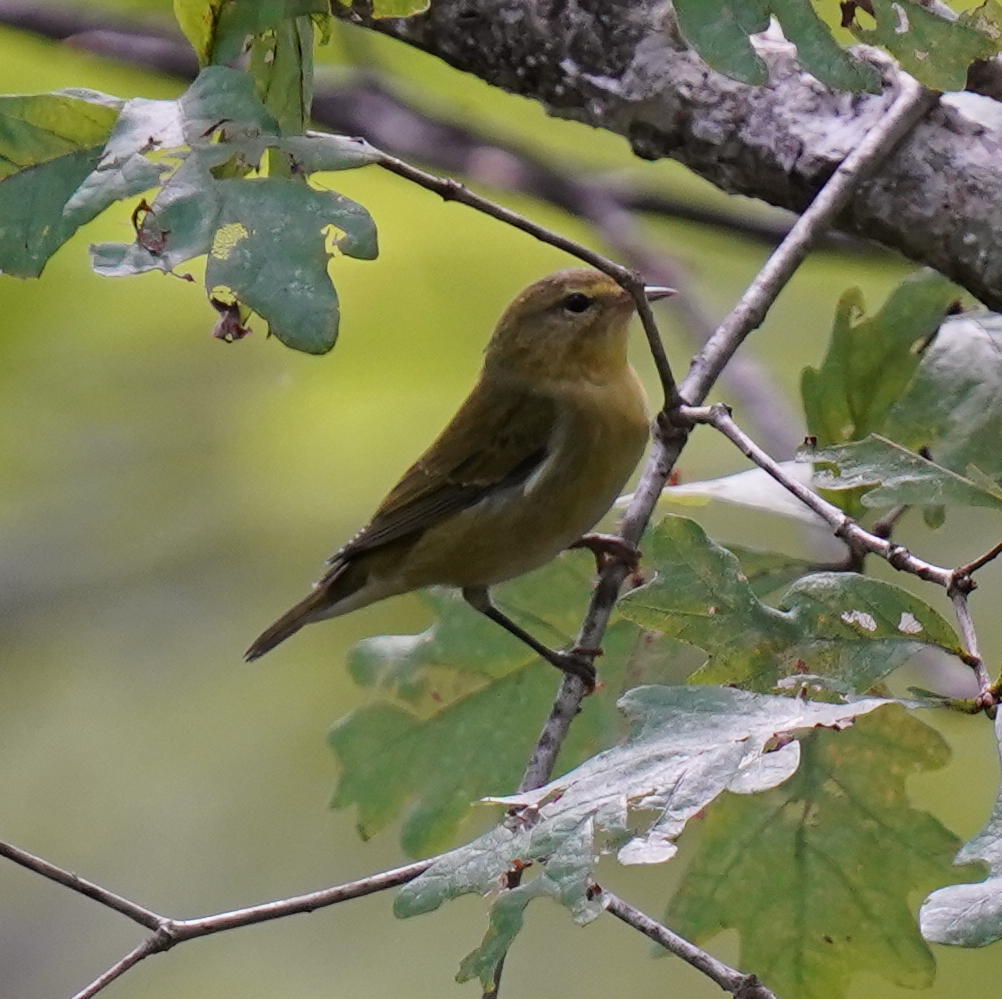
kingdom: Animalia
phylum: Chordata
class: Aves
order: Passeriformes
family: Parulidae
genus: Leiothlypis
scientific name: Leiothlypis peregrina
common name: Tennessee warbler
